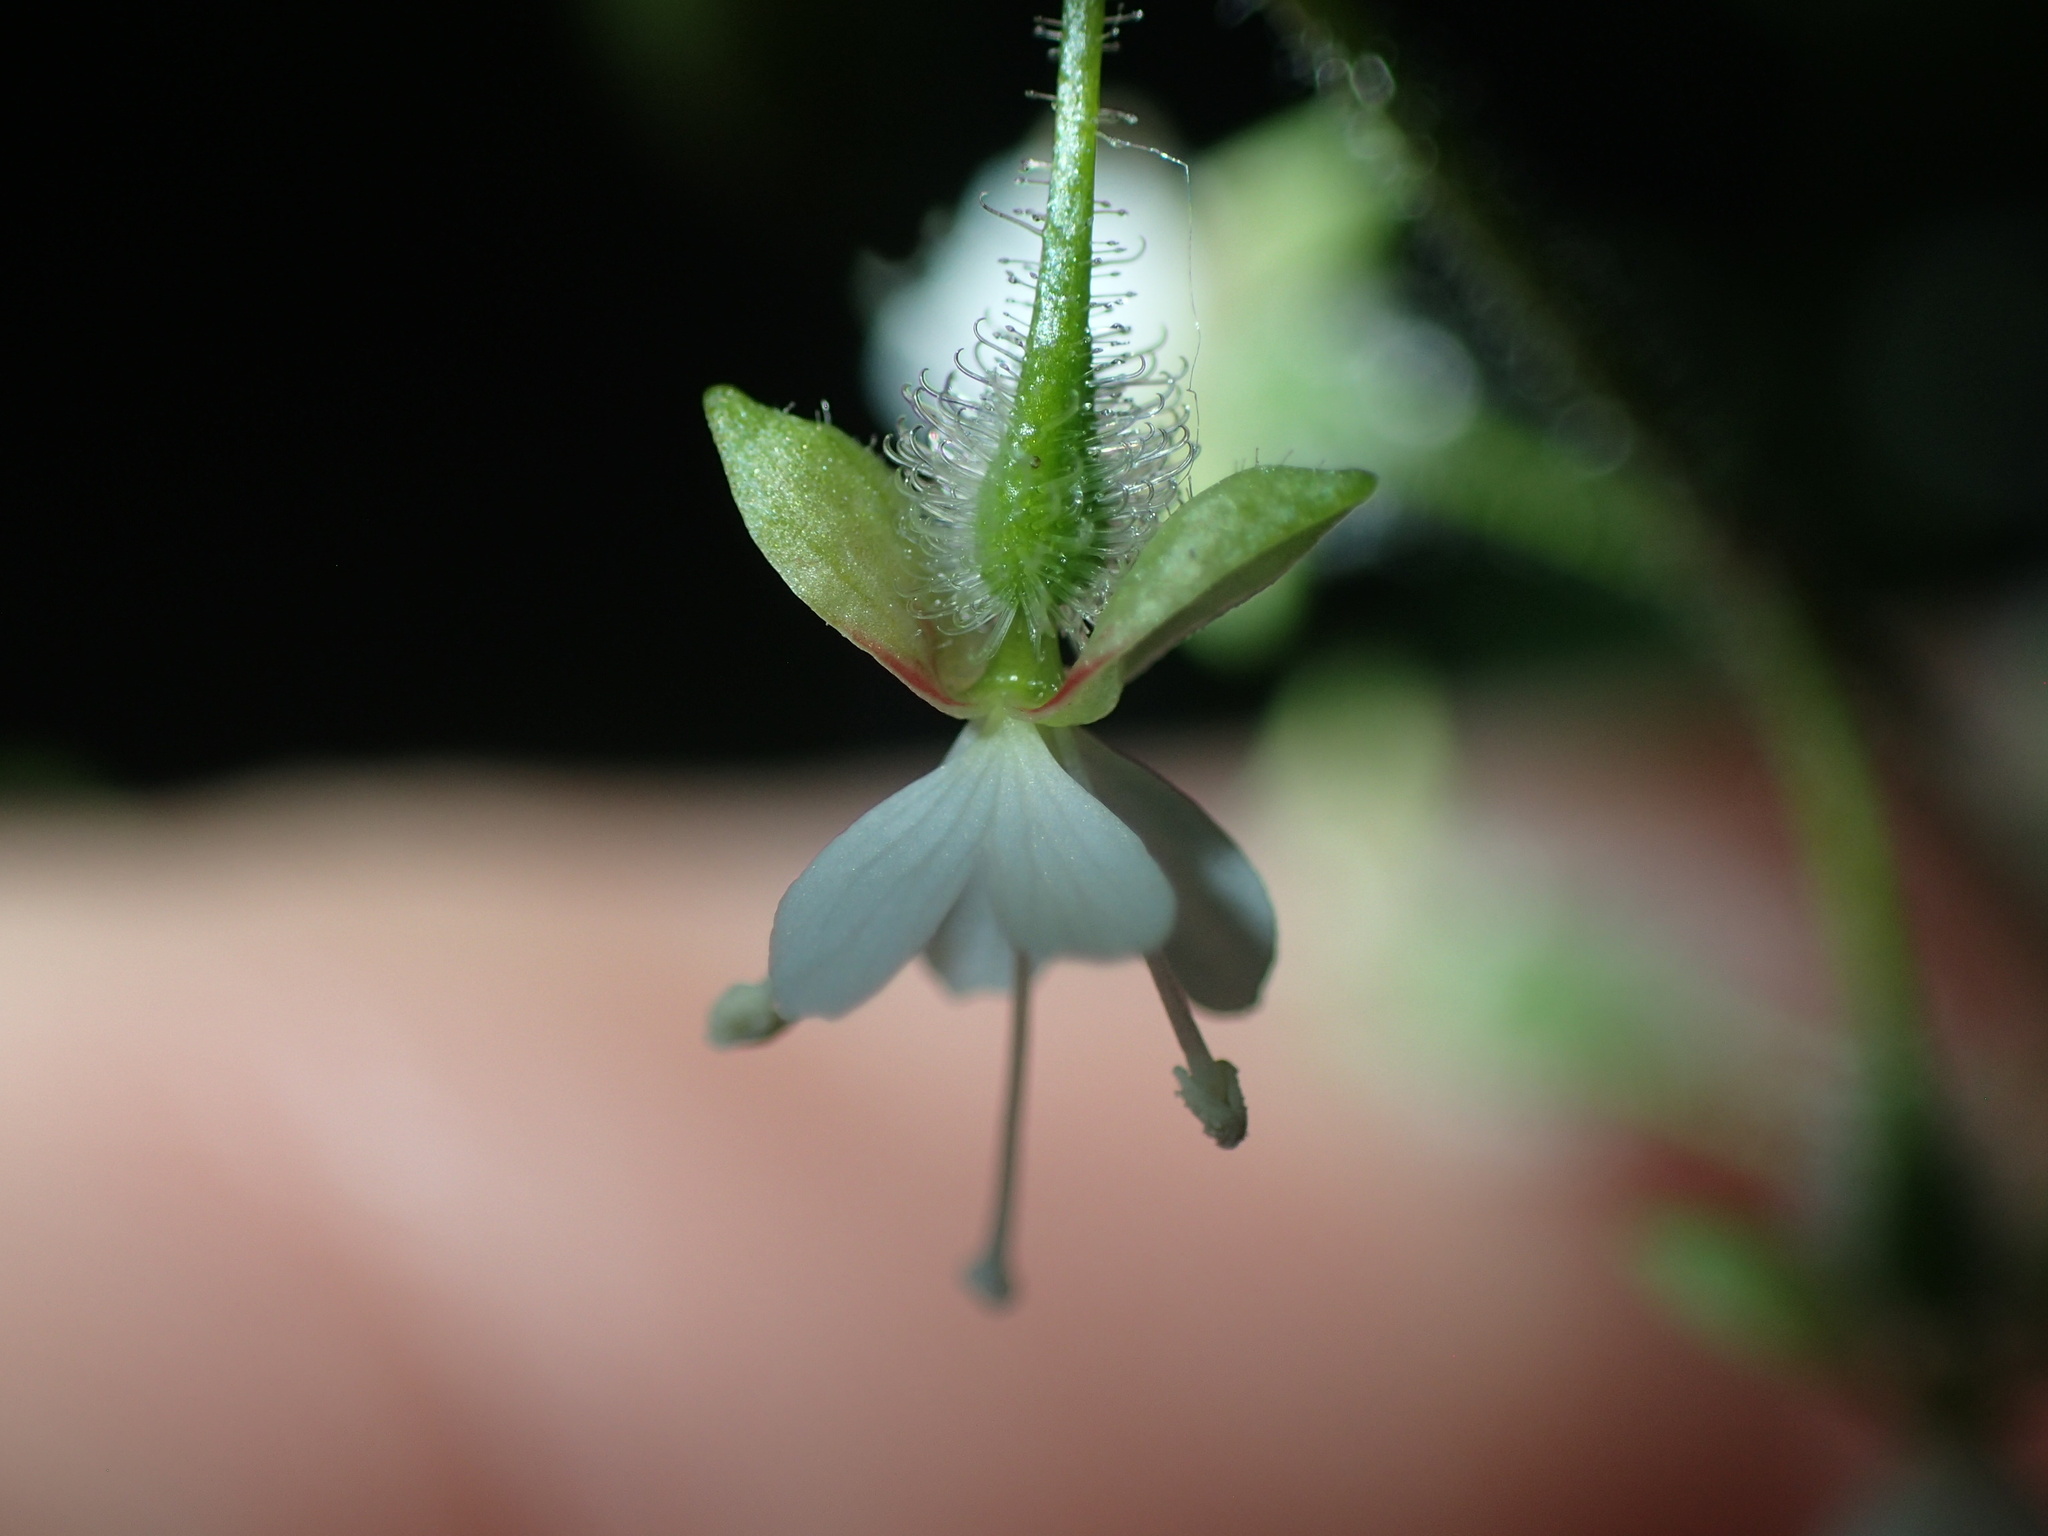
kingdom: Plantae
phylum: Tracheophyta
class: Magnoliopsida
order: Myrtales
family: Onagraceae
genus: Circaea
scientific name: Circaea canadensis
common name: Broad-leaved enchanter's nightshade
